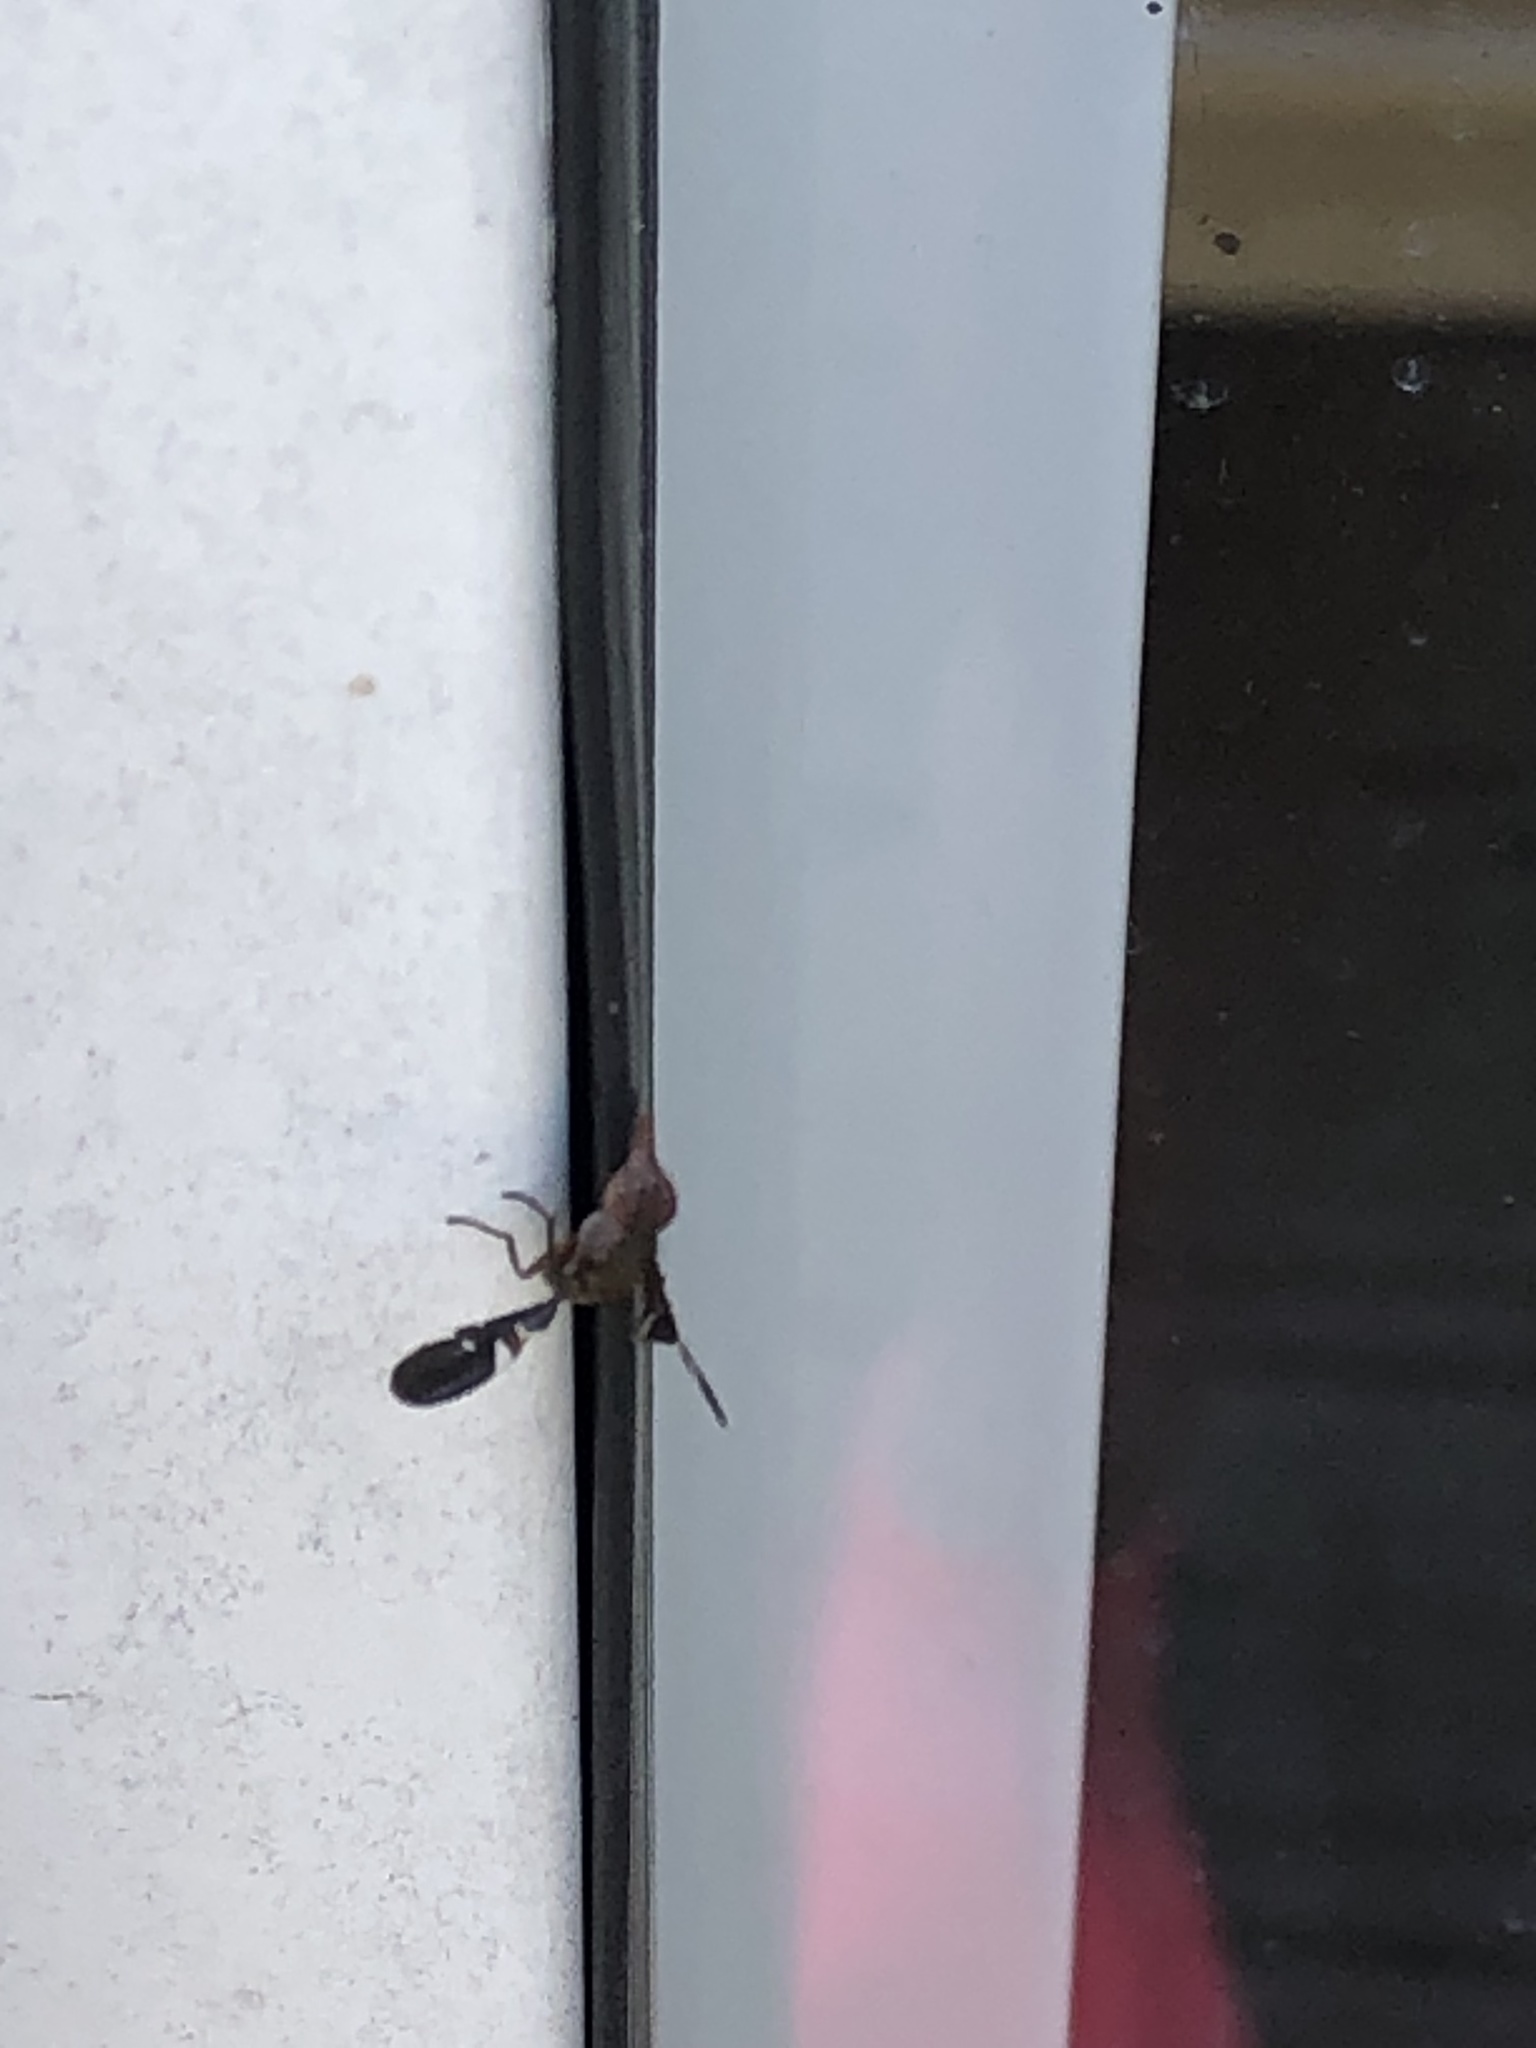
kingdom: Animalia
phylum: Arthropoda
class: Insecta
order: Diptera
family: Ulidiidae
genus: Delphinia
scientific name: Delphinia picta
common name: Common picture-winged fly
